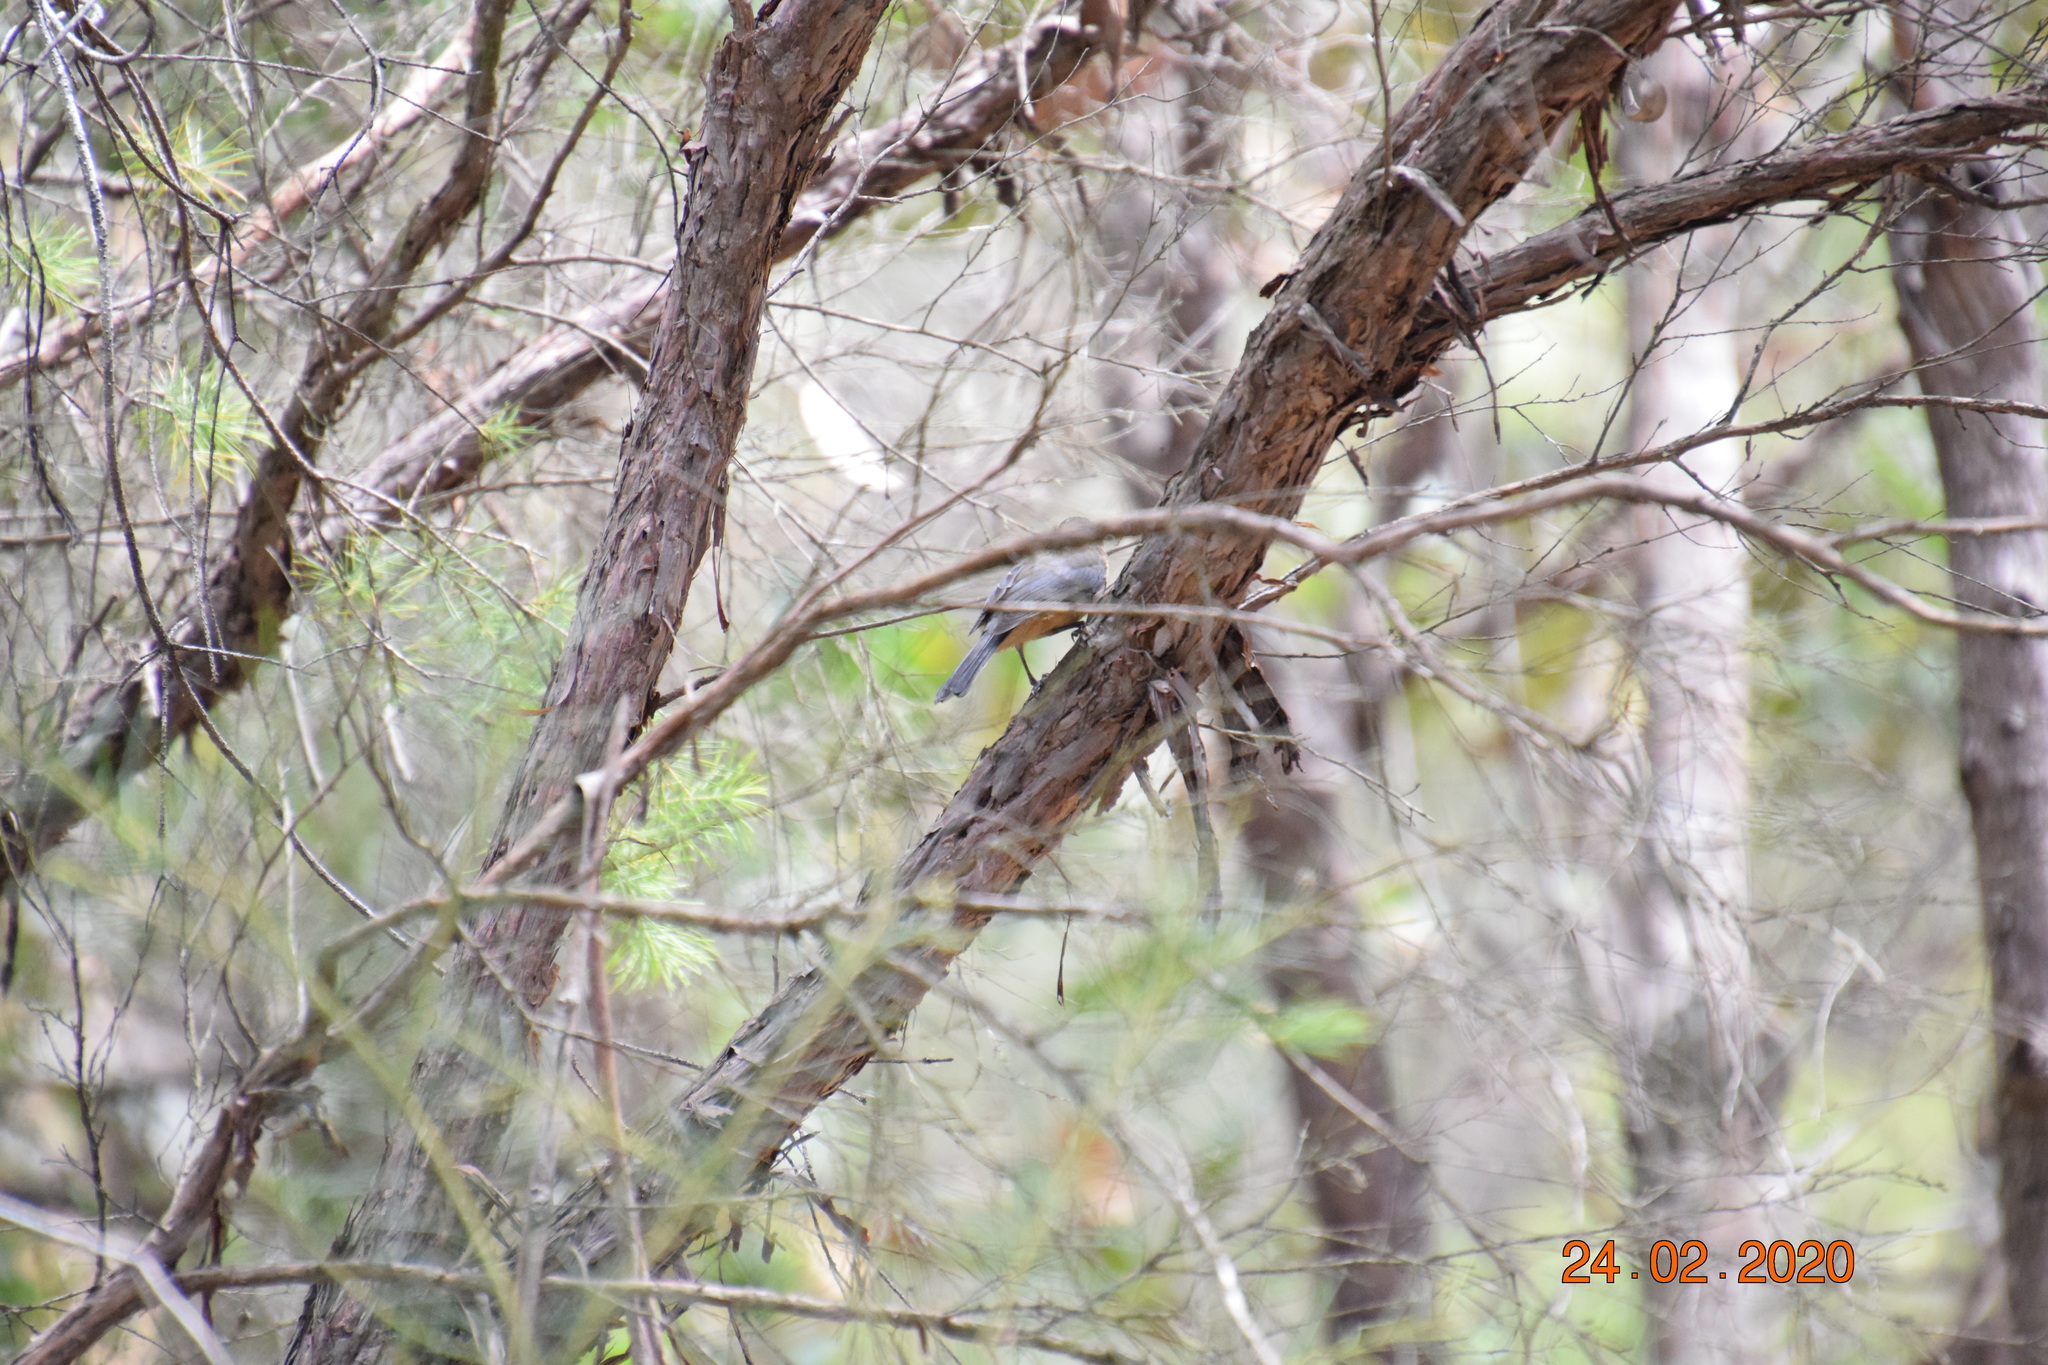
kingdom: Animalia
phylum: Chordata
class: Aves
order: Passeriformes
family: Meliphagidae
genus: Acanthorhynchus
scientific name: Acanthorhynchus tenuirostris
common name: Eastern spinebill
